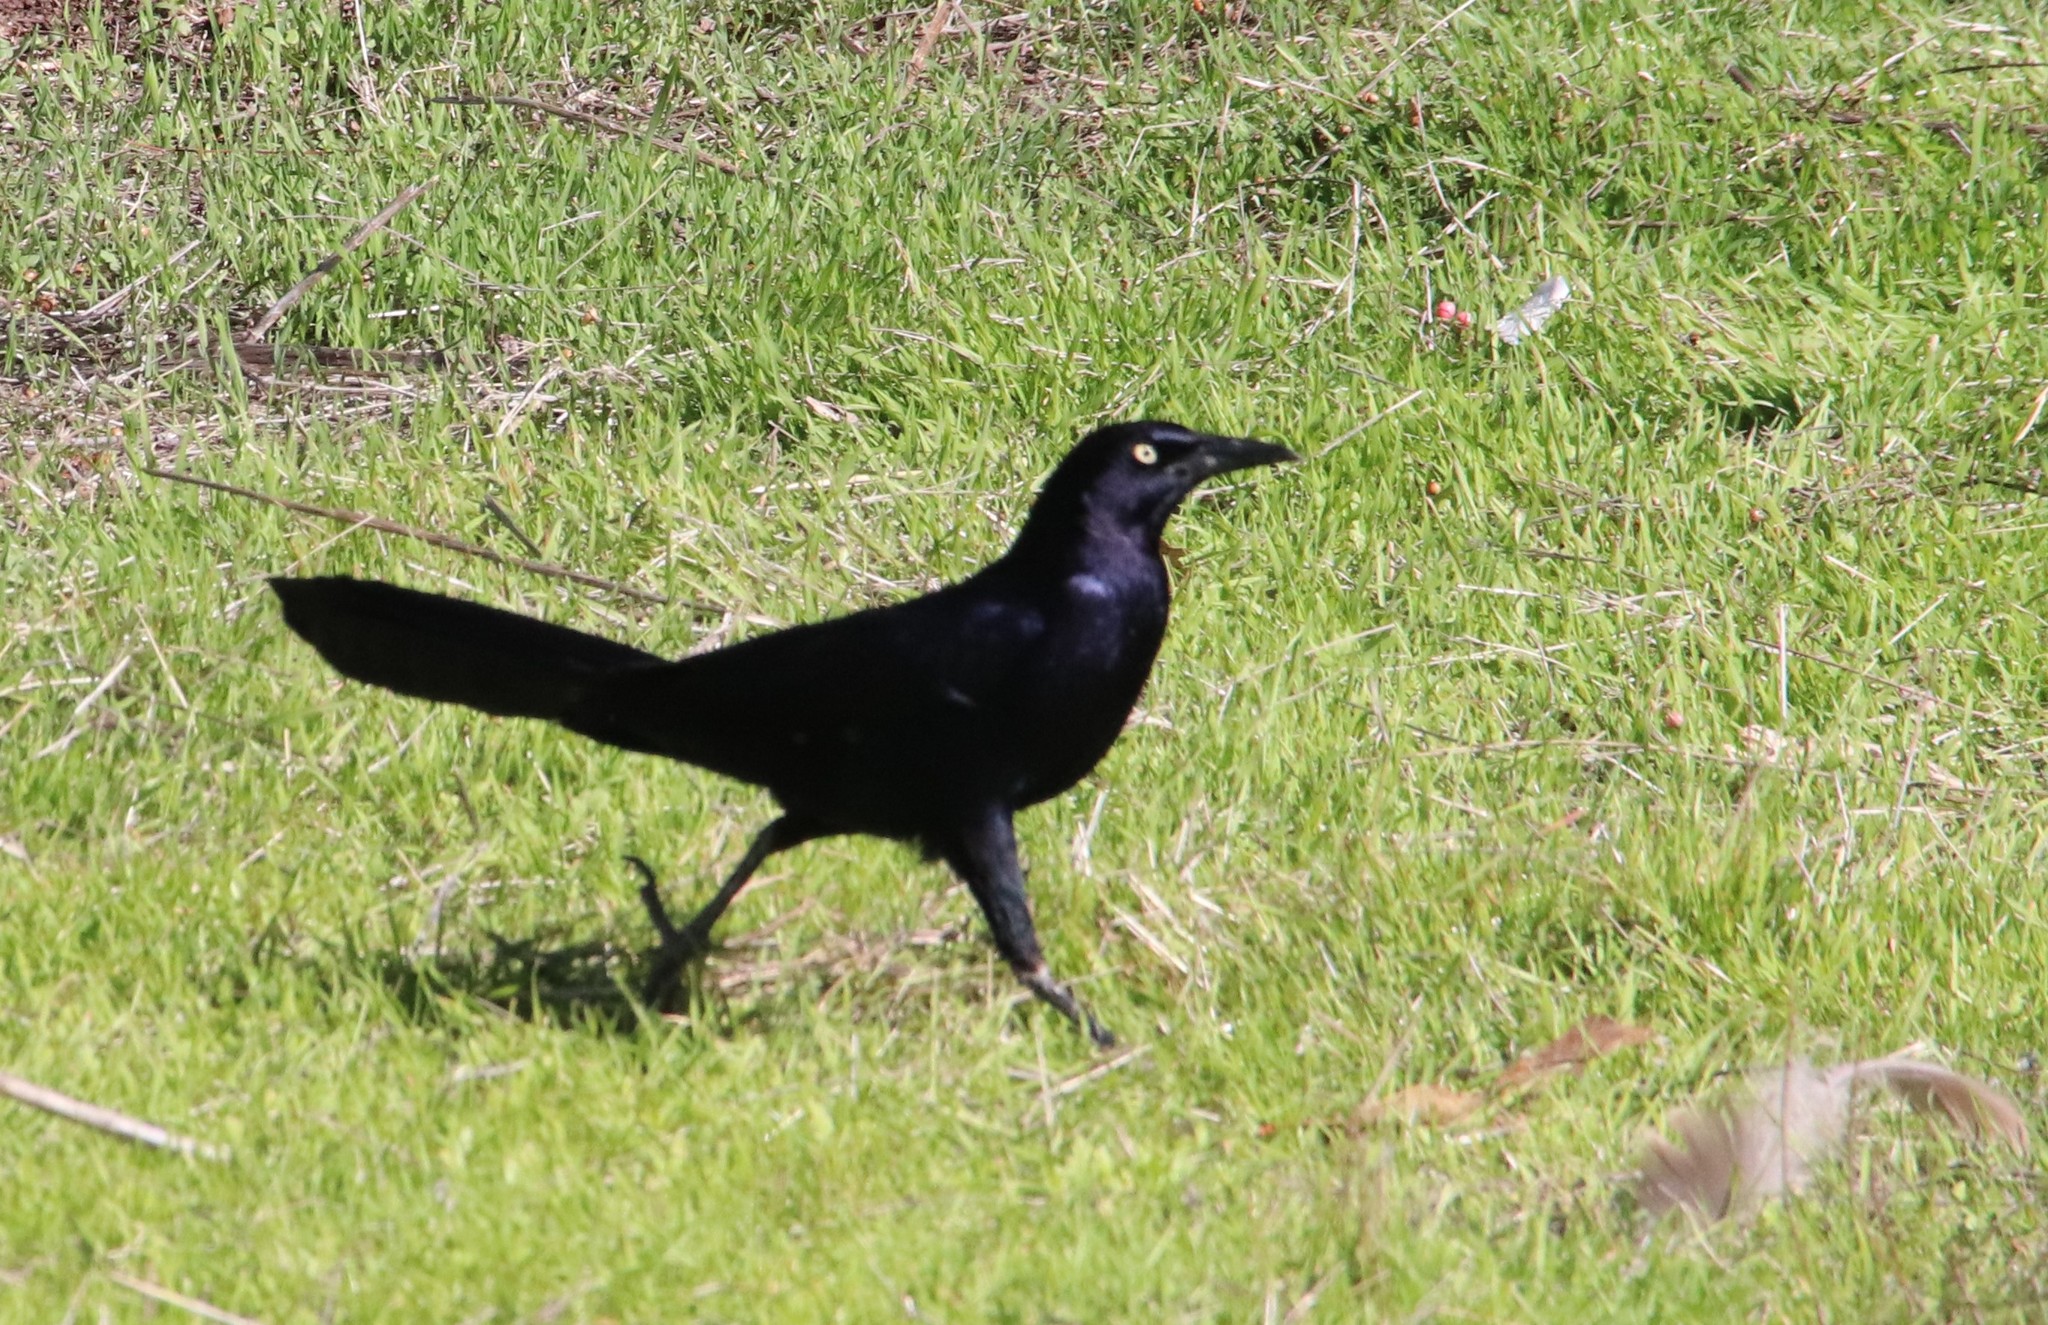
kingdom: Animalia
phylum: Chordata
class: Aves
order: Passeriformes
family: Icteridae
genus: Quiscalus
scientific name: Quiscalus mexicanus
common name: Great-tailed grackle
